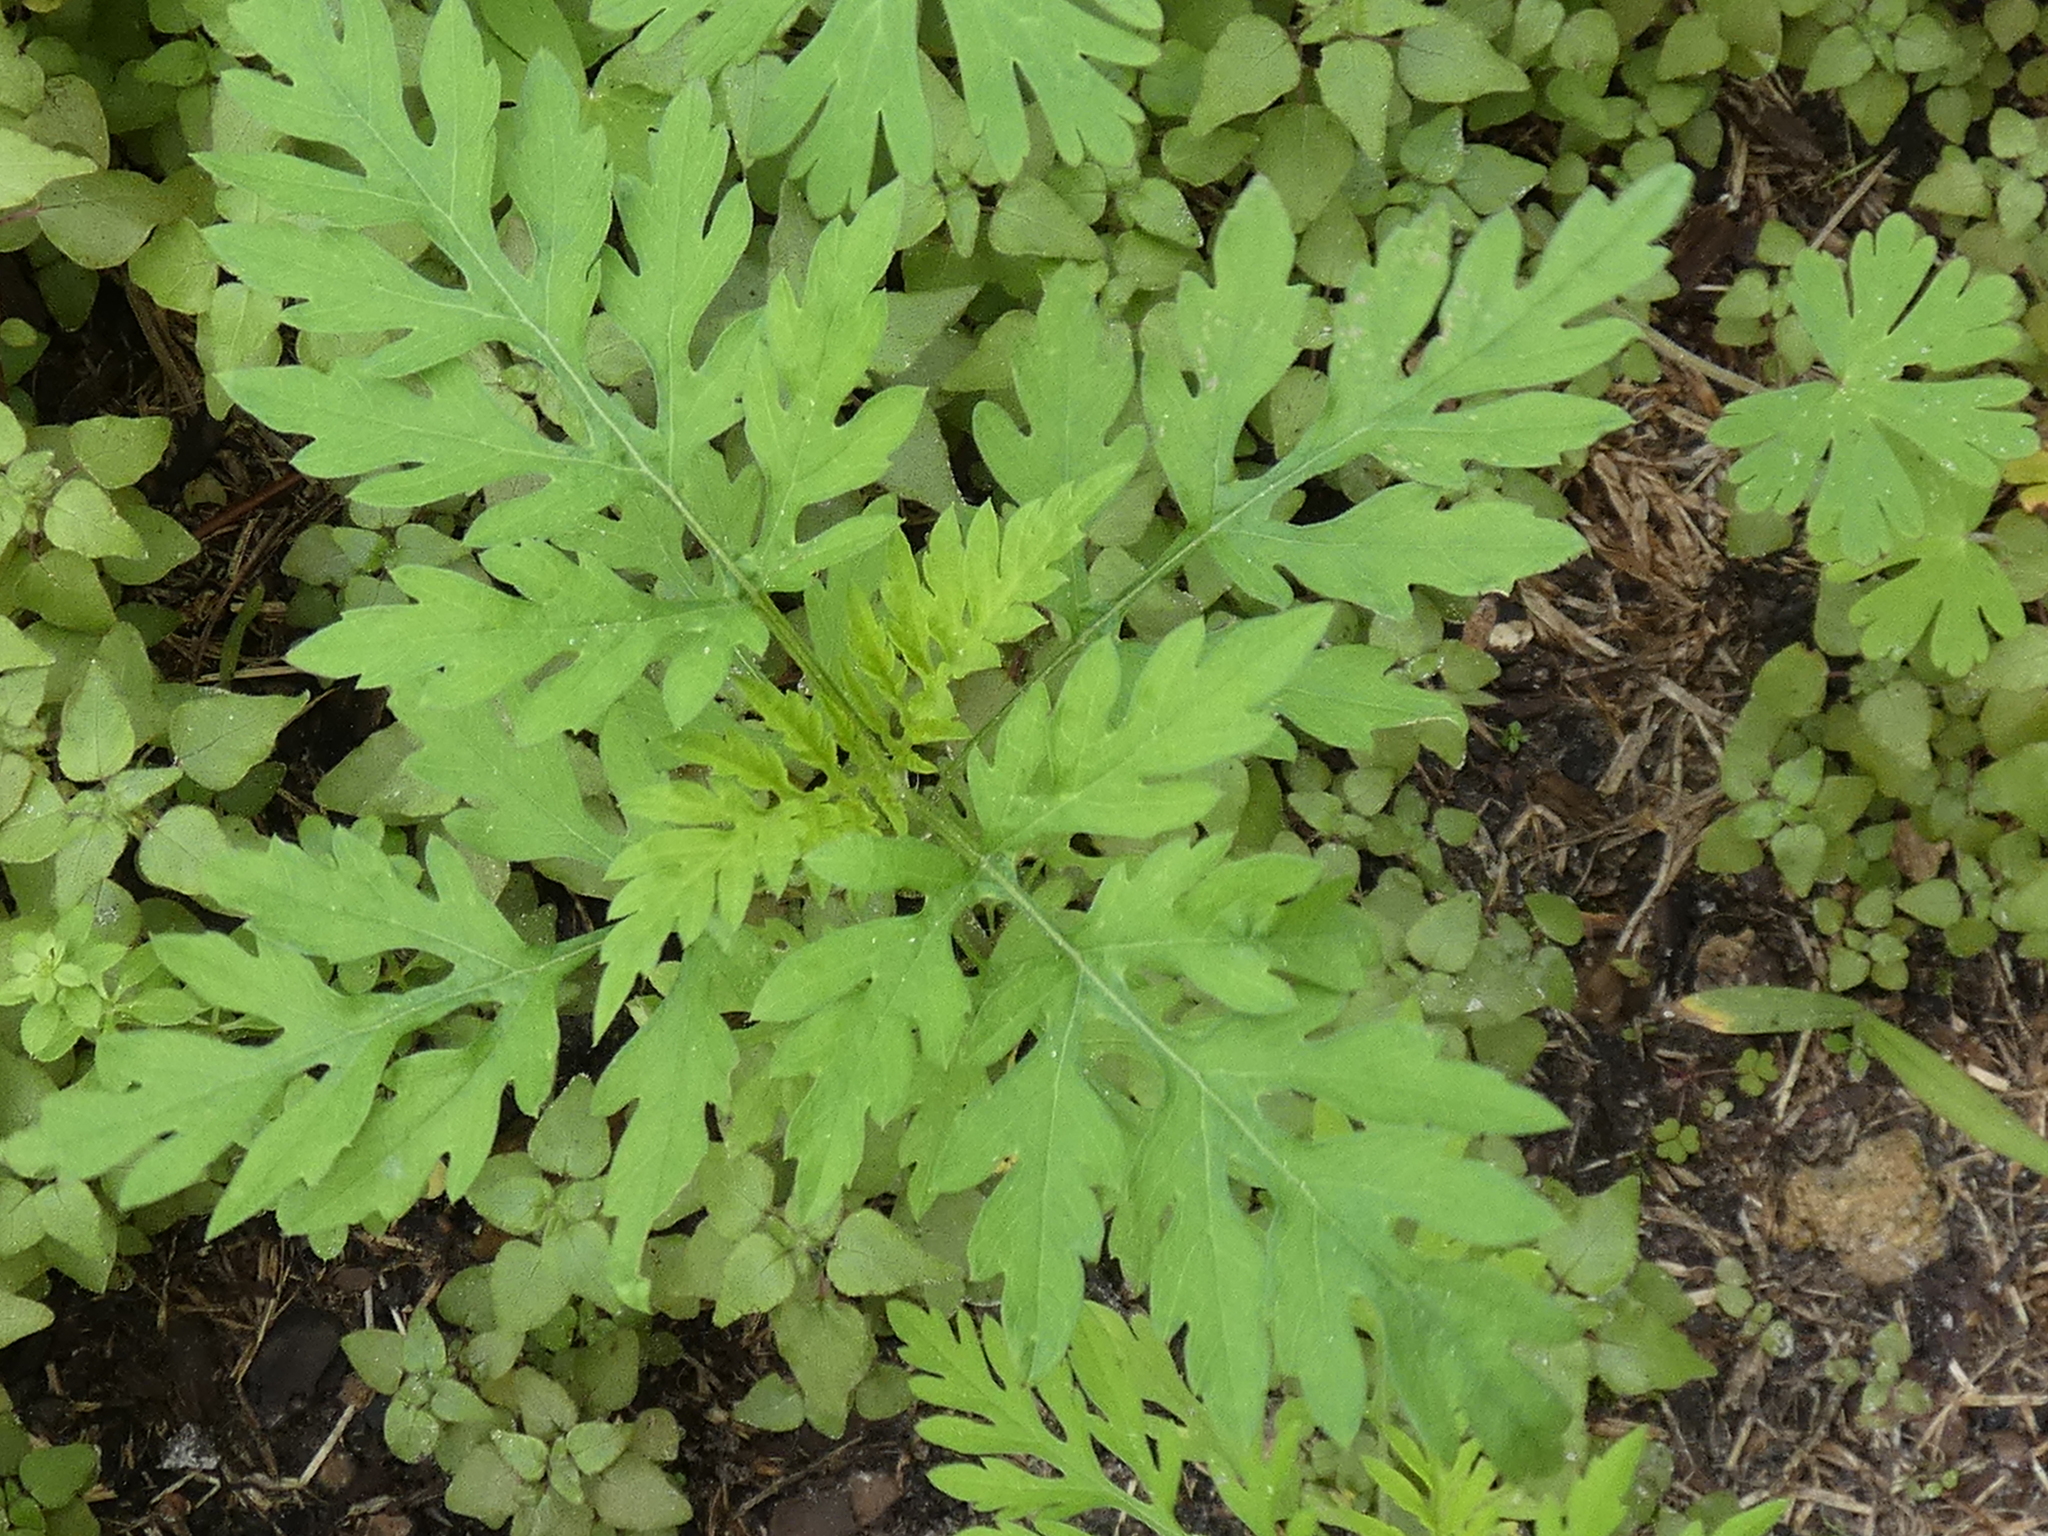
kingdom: Plantae
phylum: Tracheophyta
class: Magnoliopsida
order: Asterales
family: Asteraceae
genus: Ambrosia
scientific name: Ambrosia artemisiifolia
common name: Annual ragweed
